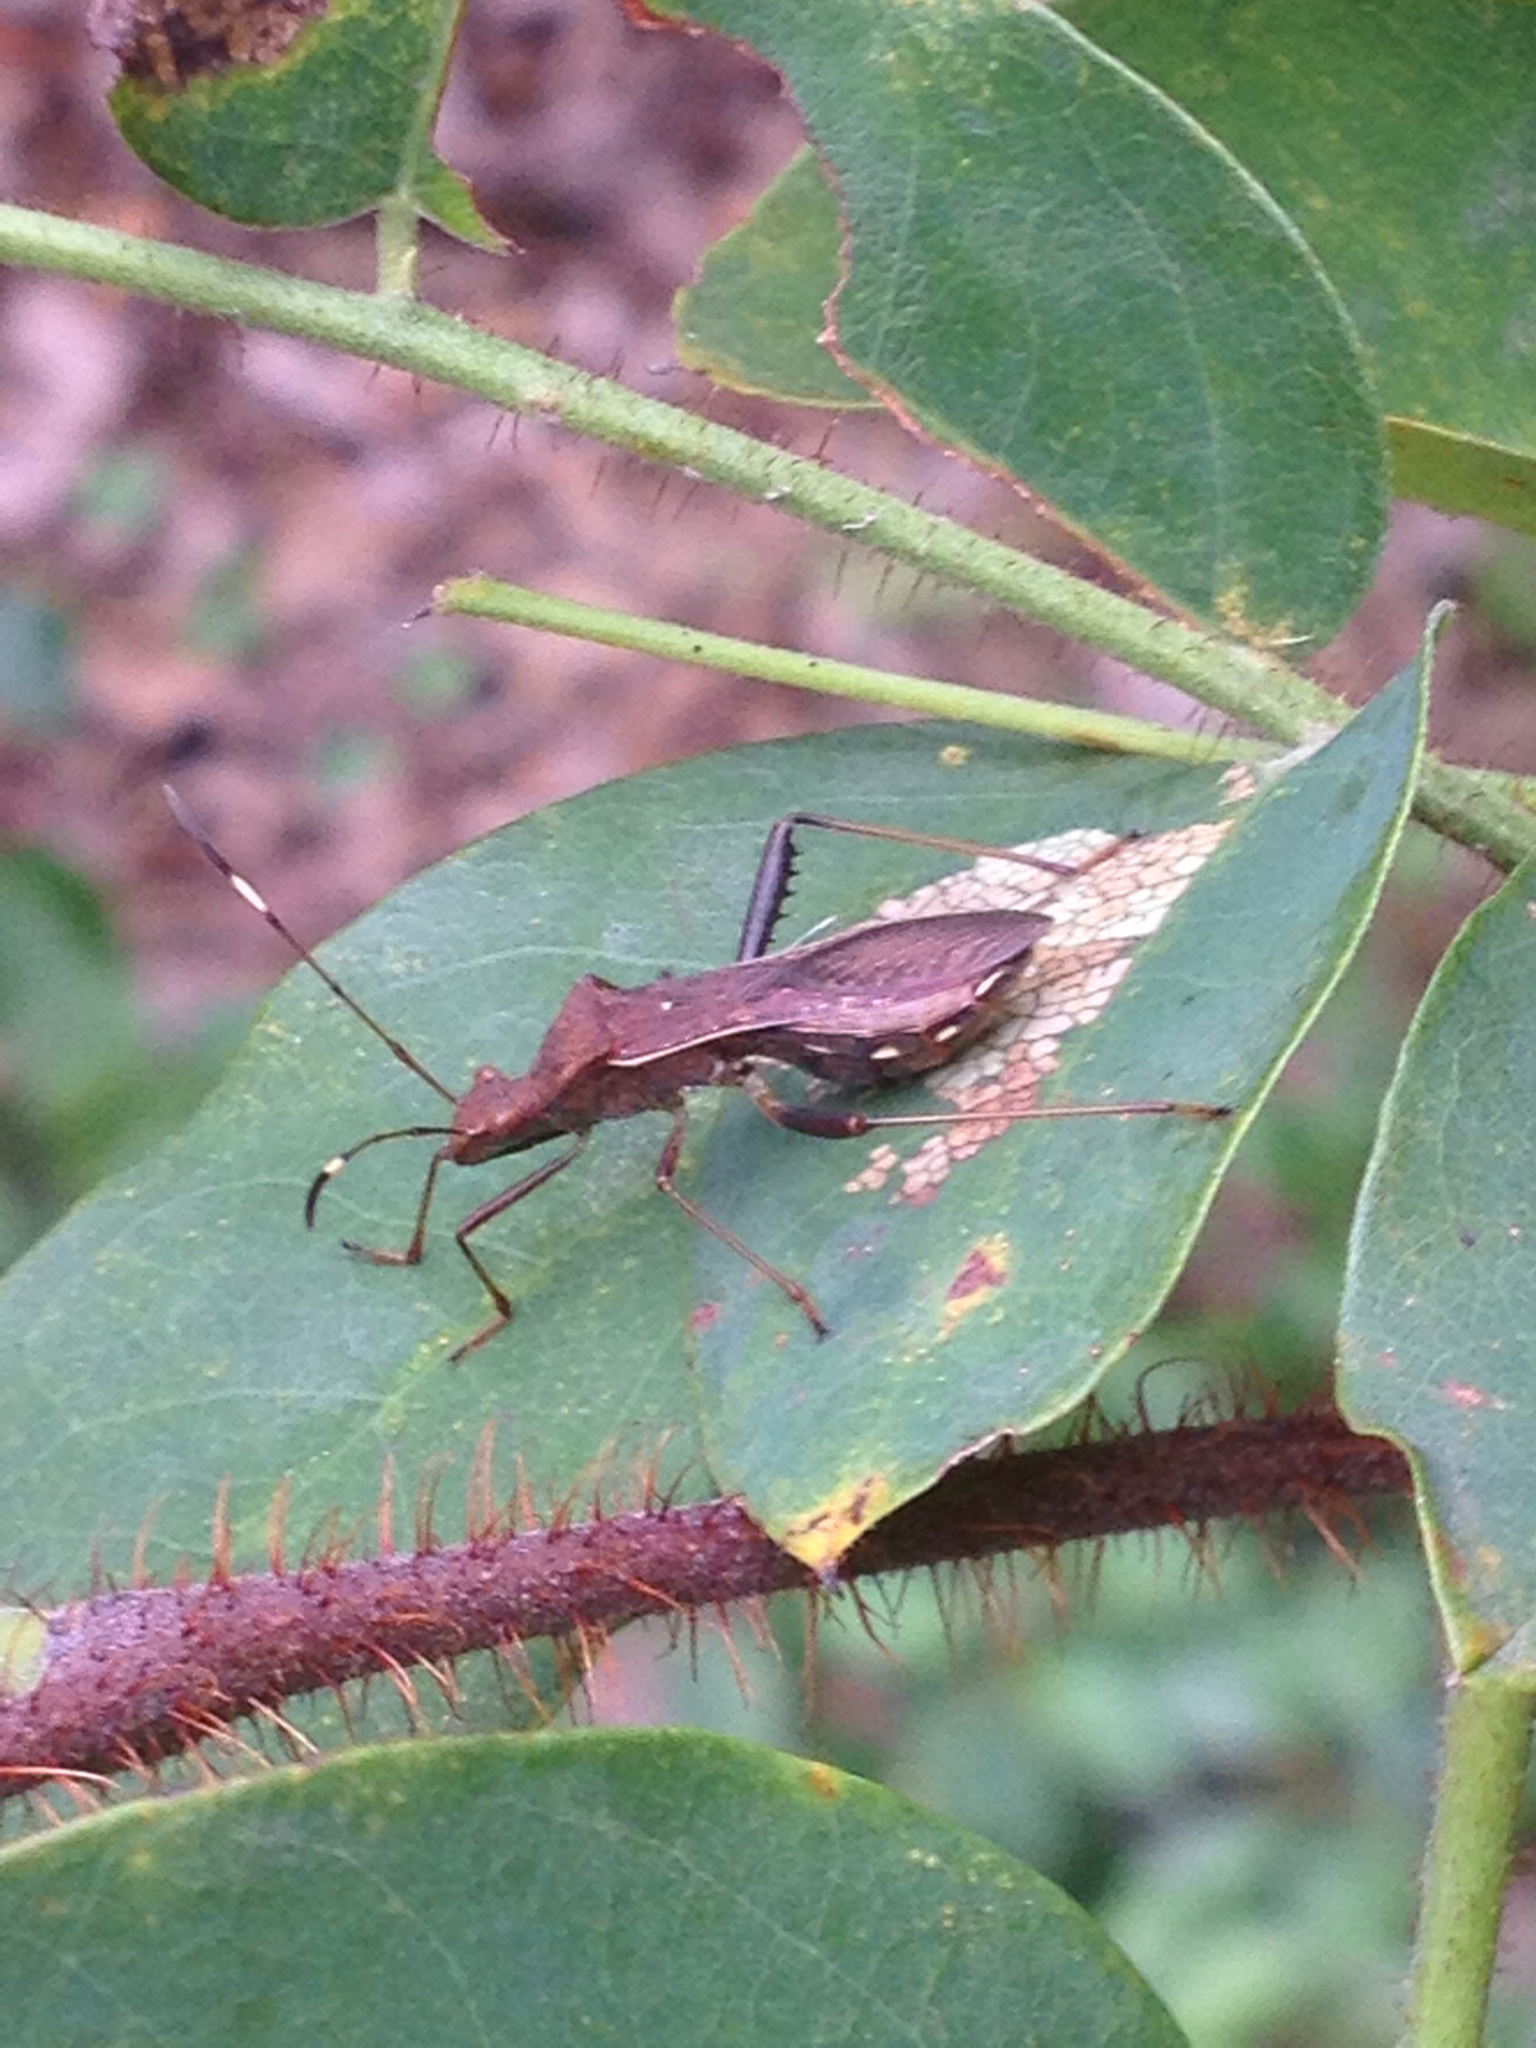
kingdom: Animalia
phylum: Arthropoda
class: Insecta
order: Hemiptera
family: Coreidae
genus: Leptoglossus
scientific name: Leptoglossus occidentalis
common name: Western conifer-seed bug
